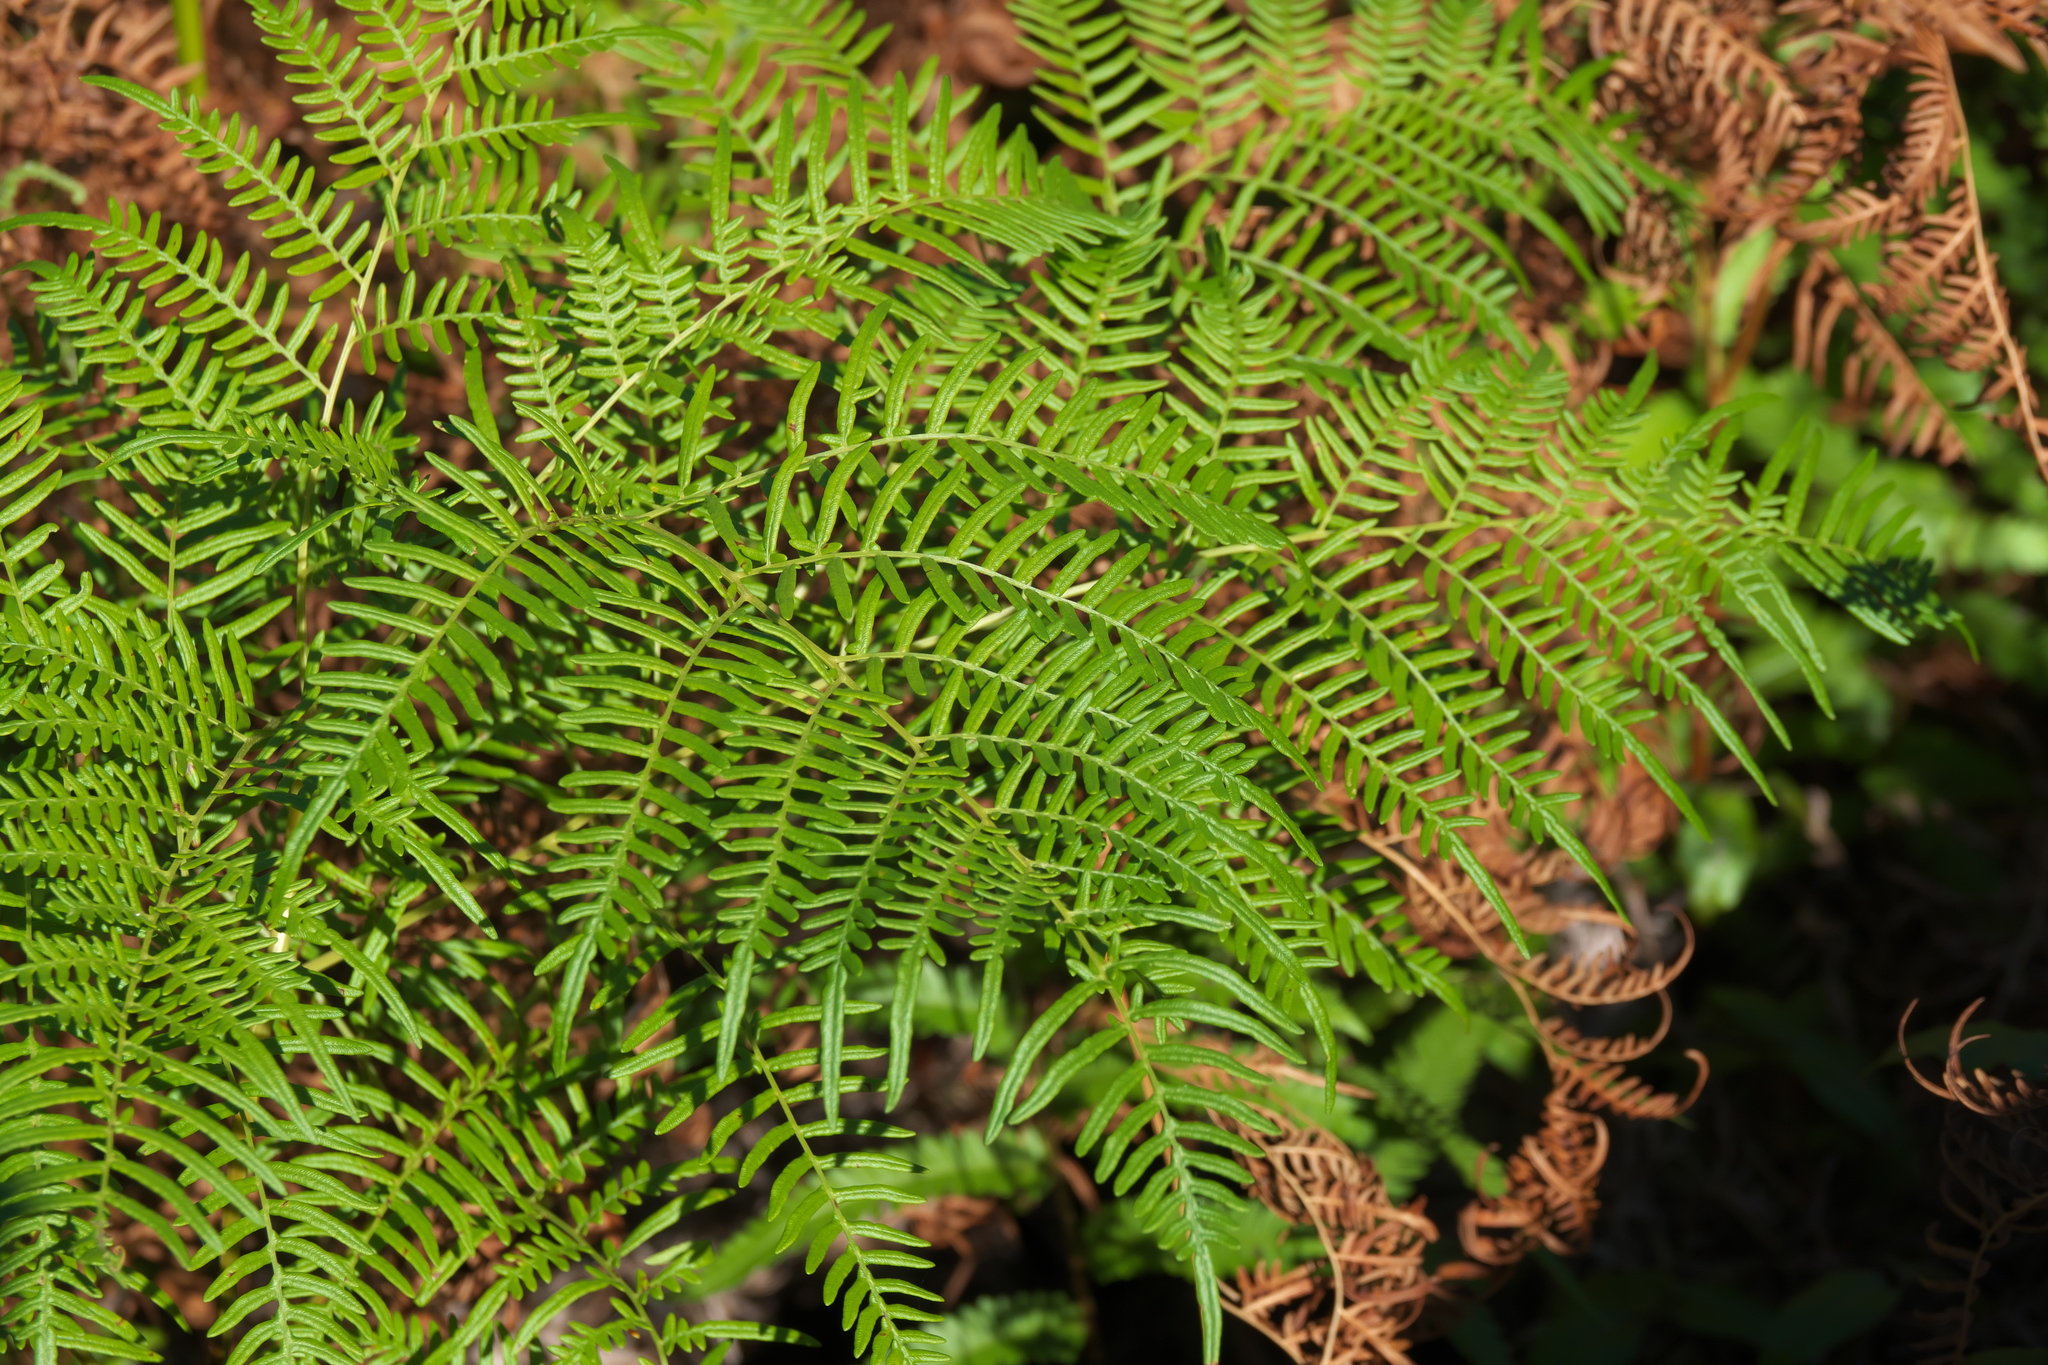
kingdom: Plantae
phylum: Tracheophyta
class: Polypodiopsida
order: Polypodiales
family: Dennstaedtiaceae
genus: Pteridium
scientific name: Pteridium caudatum
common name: Southern bracken fern
